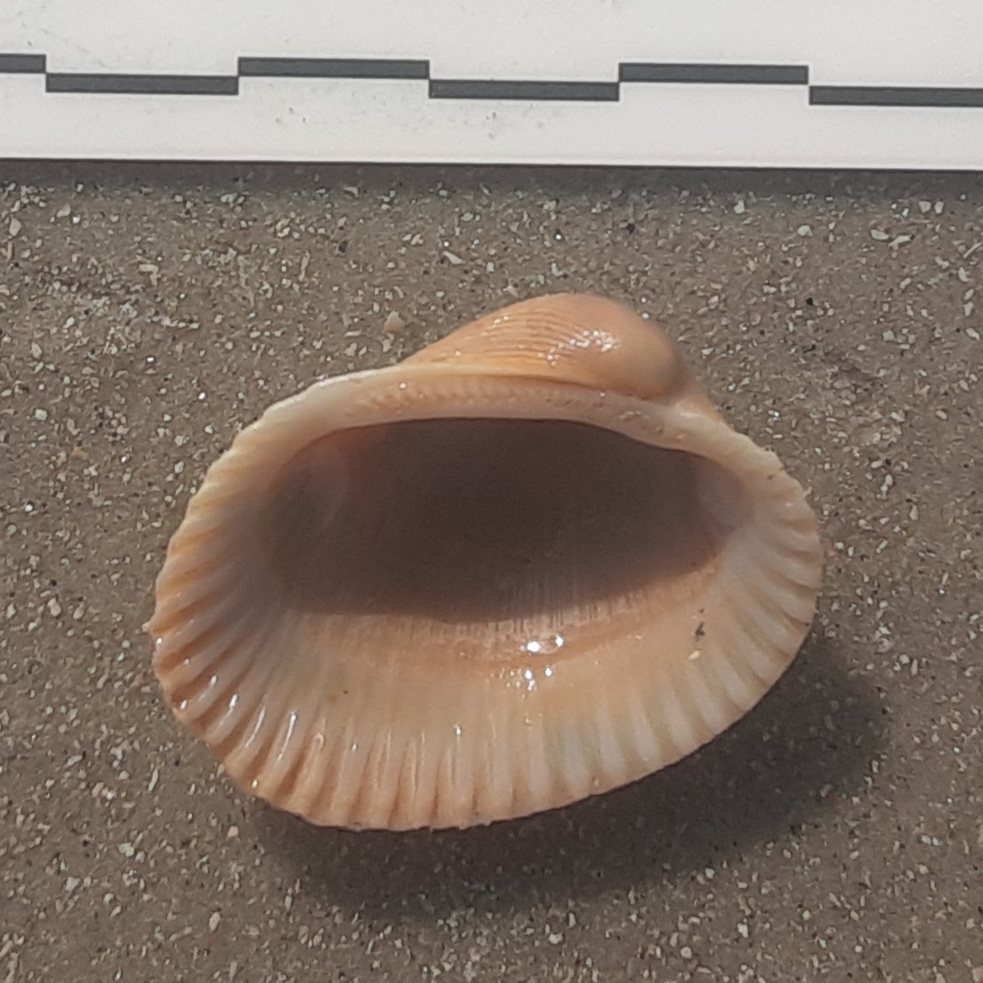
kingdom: Animalia
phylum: Mollusca
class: Bivalvia
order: Arcida
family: Arcidae
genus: Lunarca
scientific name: Lunarca ovalis
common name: Blood ark
